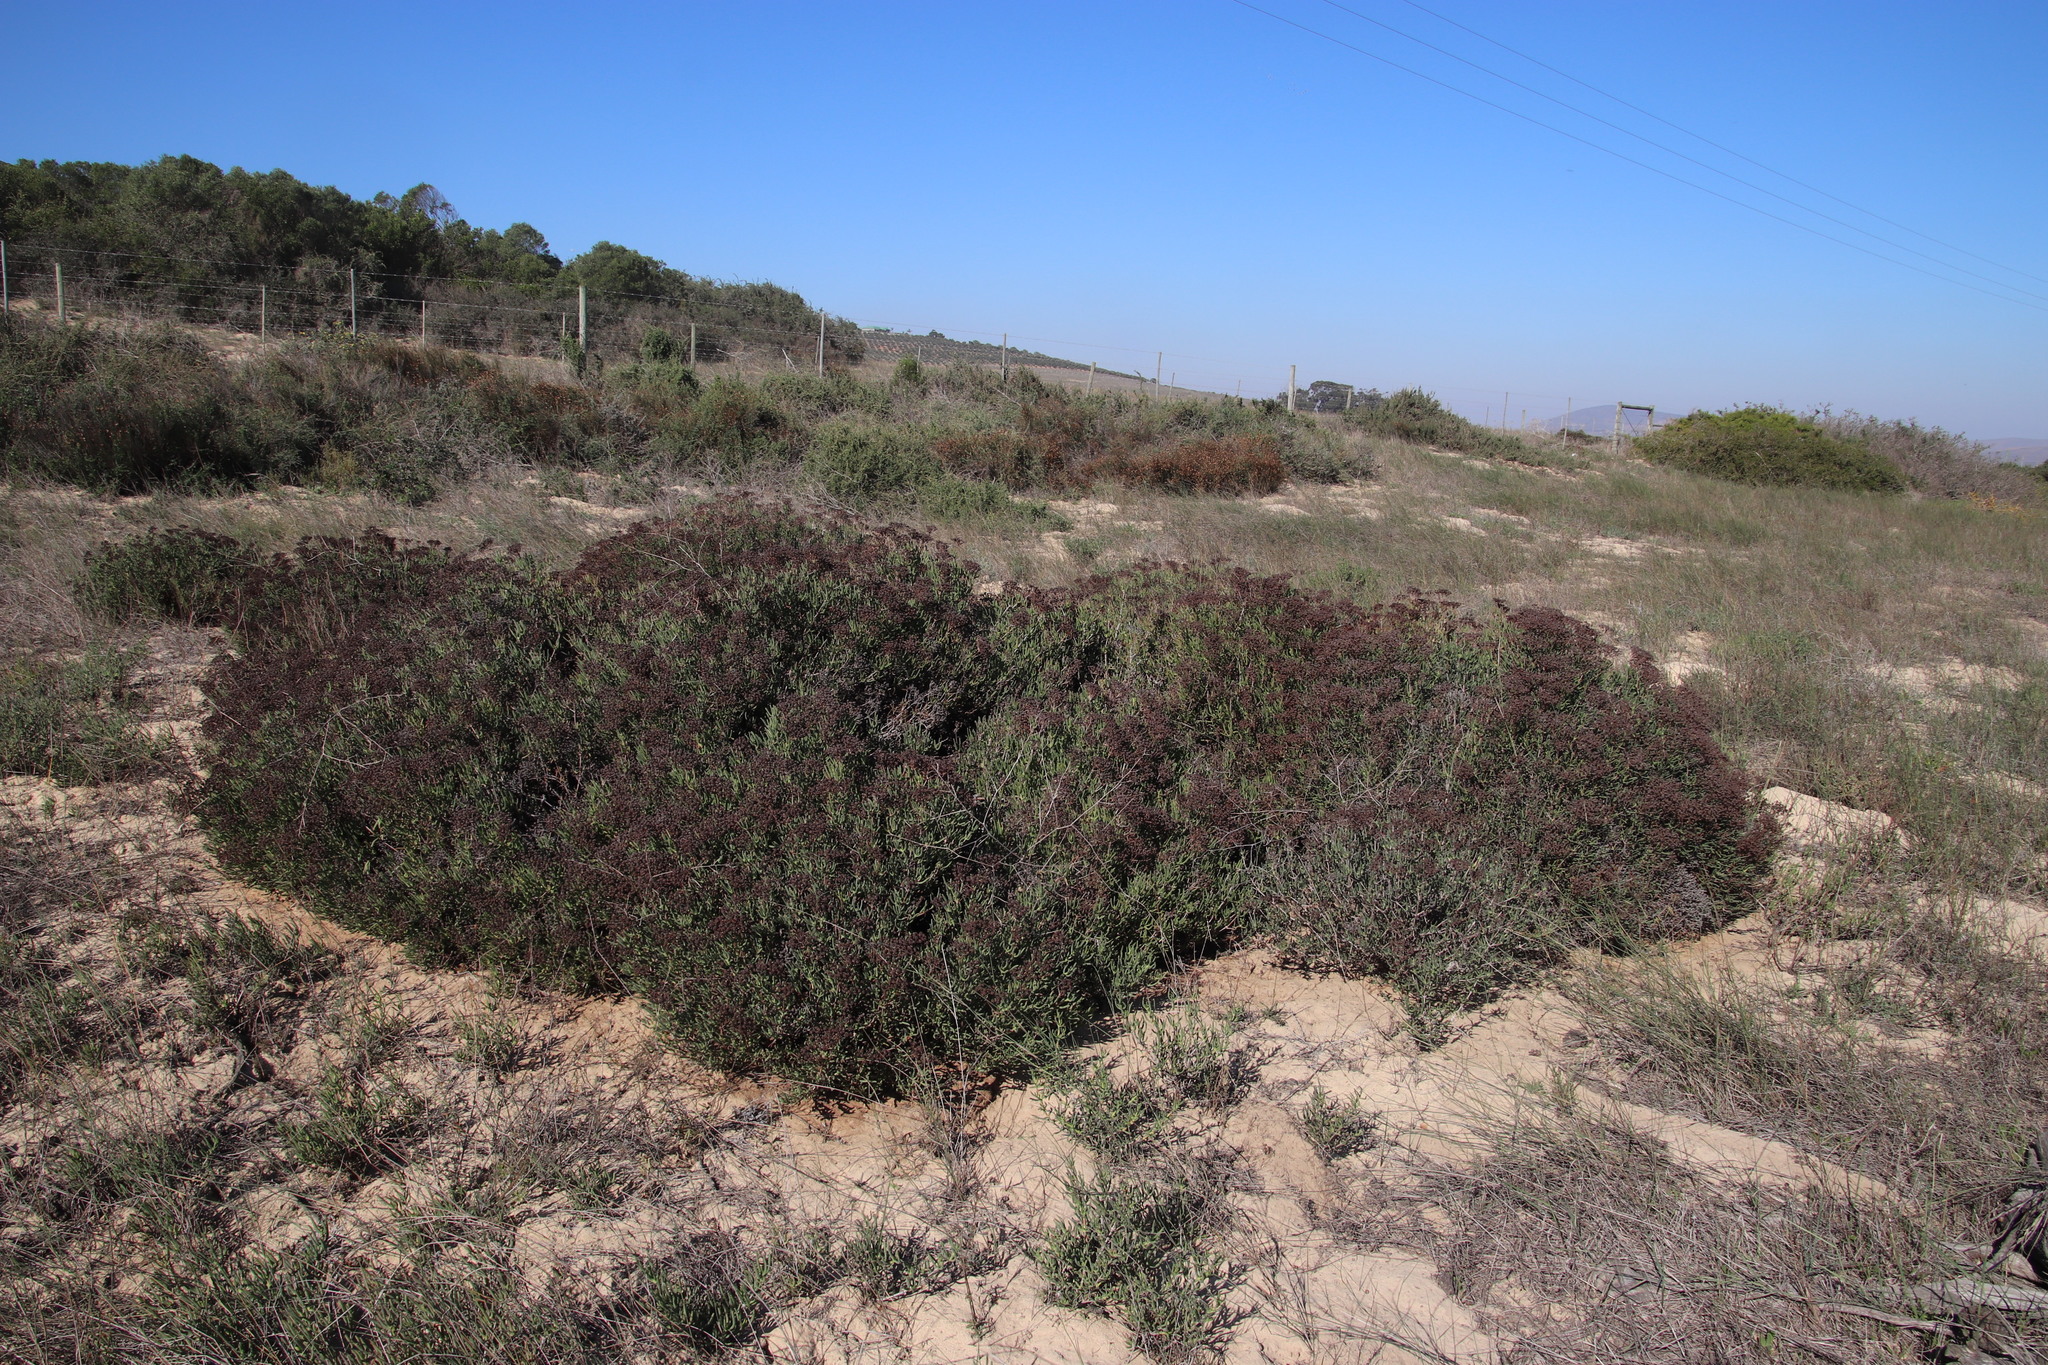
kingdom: Plantae
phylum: Tracheophyta
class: Magnoliopsida
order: Caryophyllales
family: Aizoaceae
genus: Ruschia
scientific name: Ruschia tumidula
